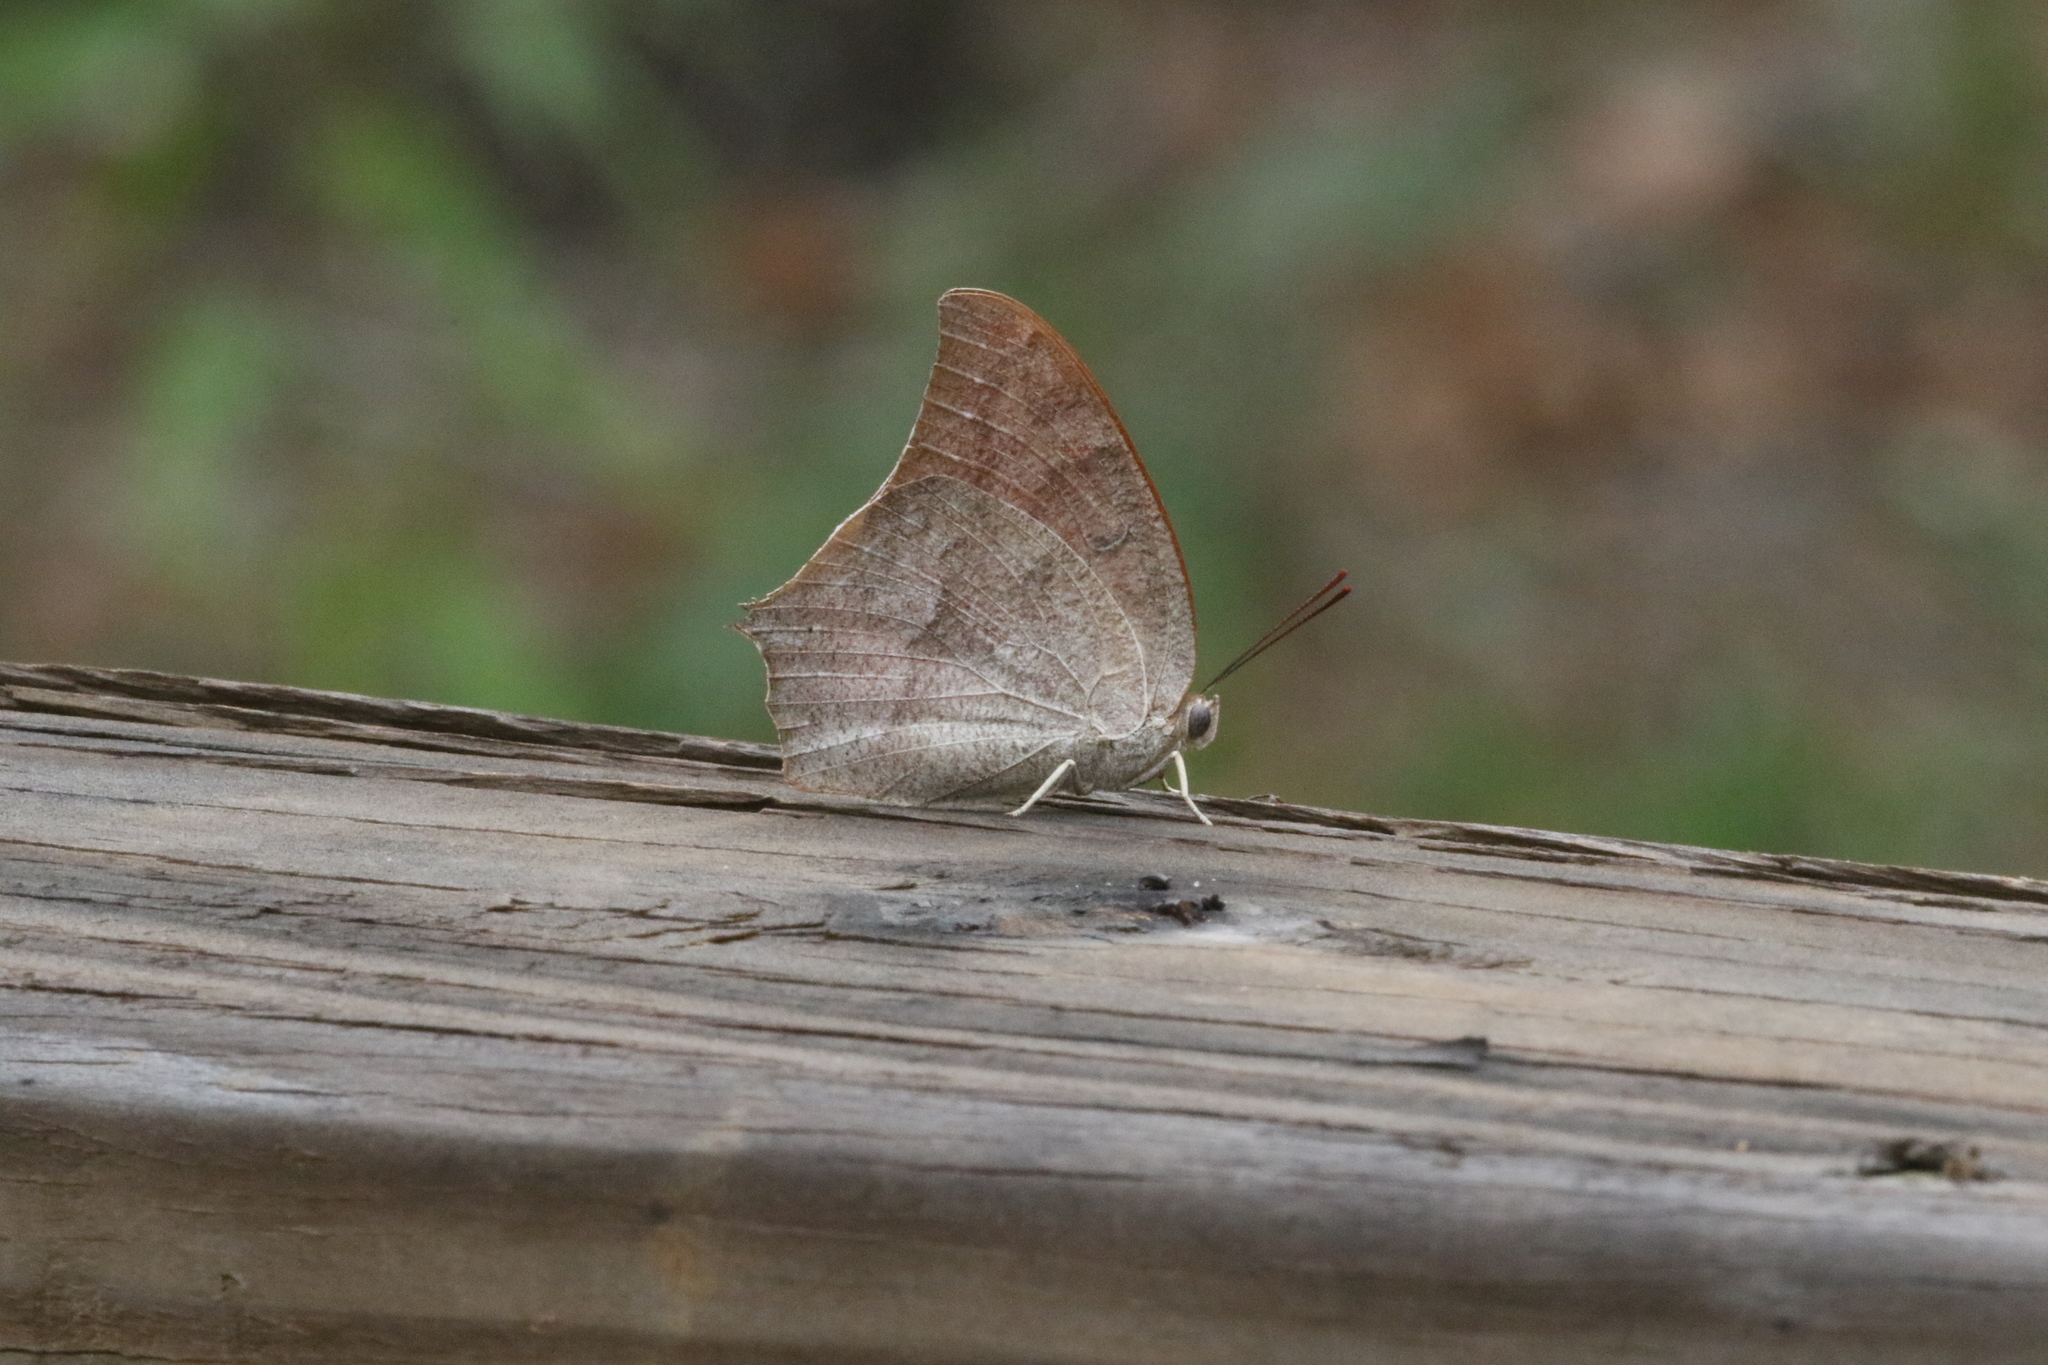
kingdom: Animalia
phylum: Arthropoda
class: Insecta
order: Lepidoptera
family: Nymphalidae
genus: Anaea
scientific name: Anaea andria
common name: Goatweed leafwing
